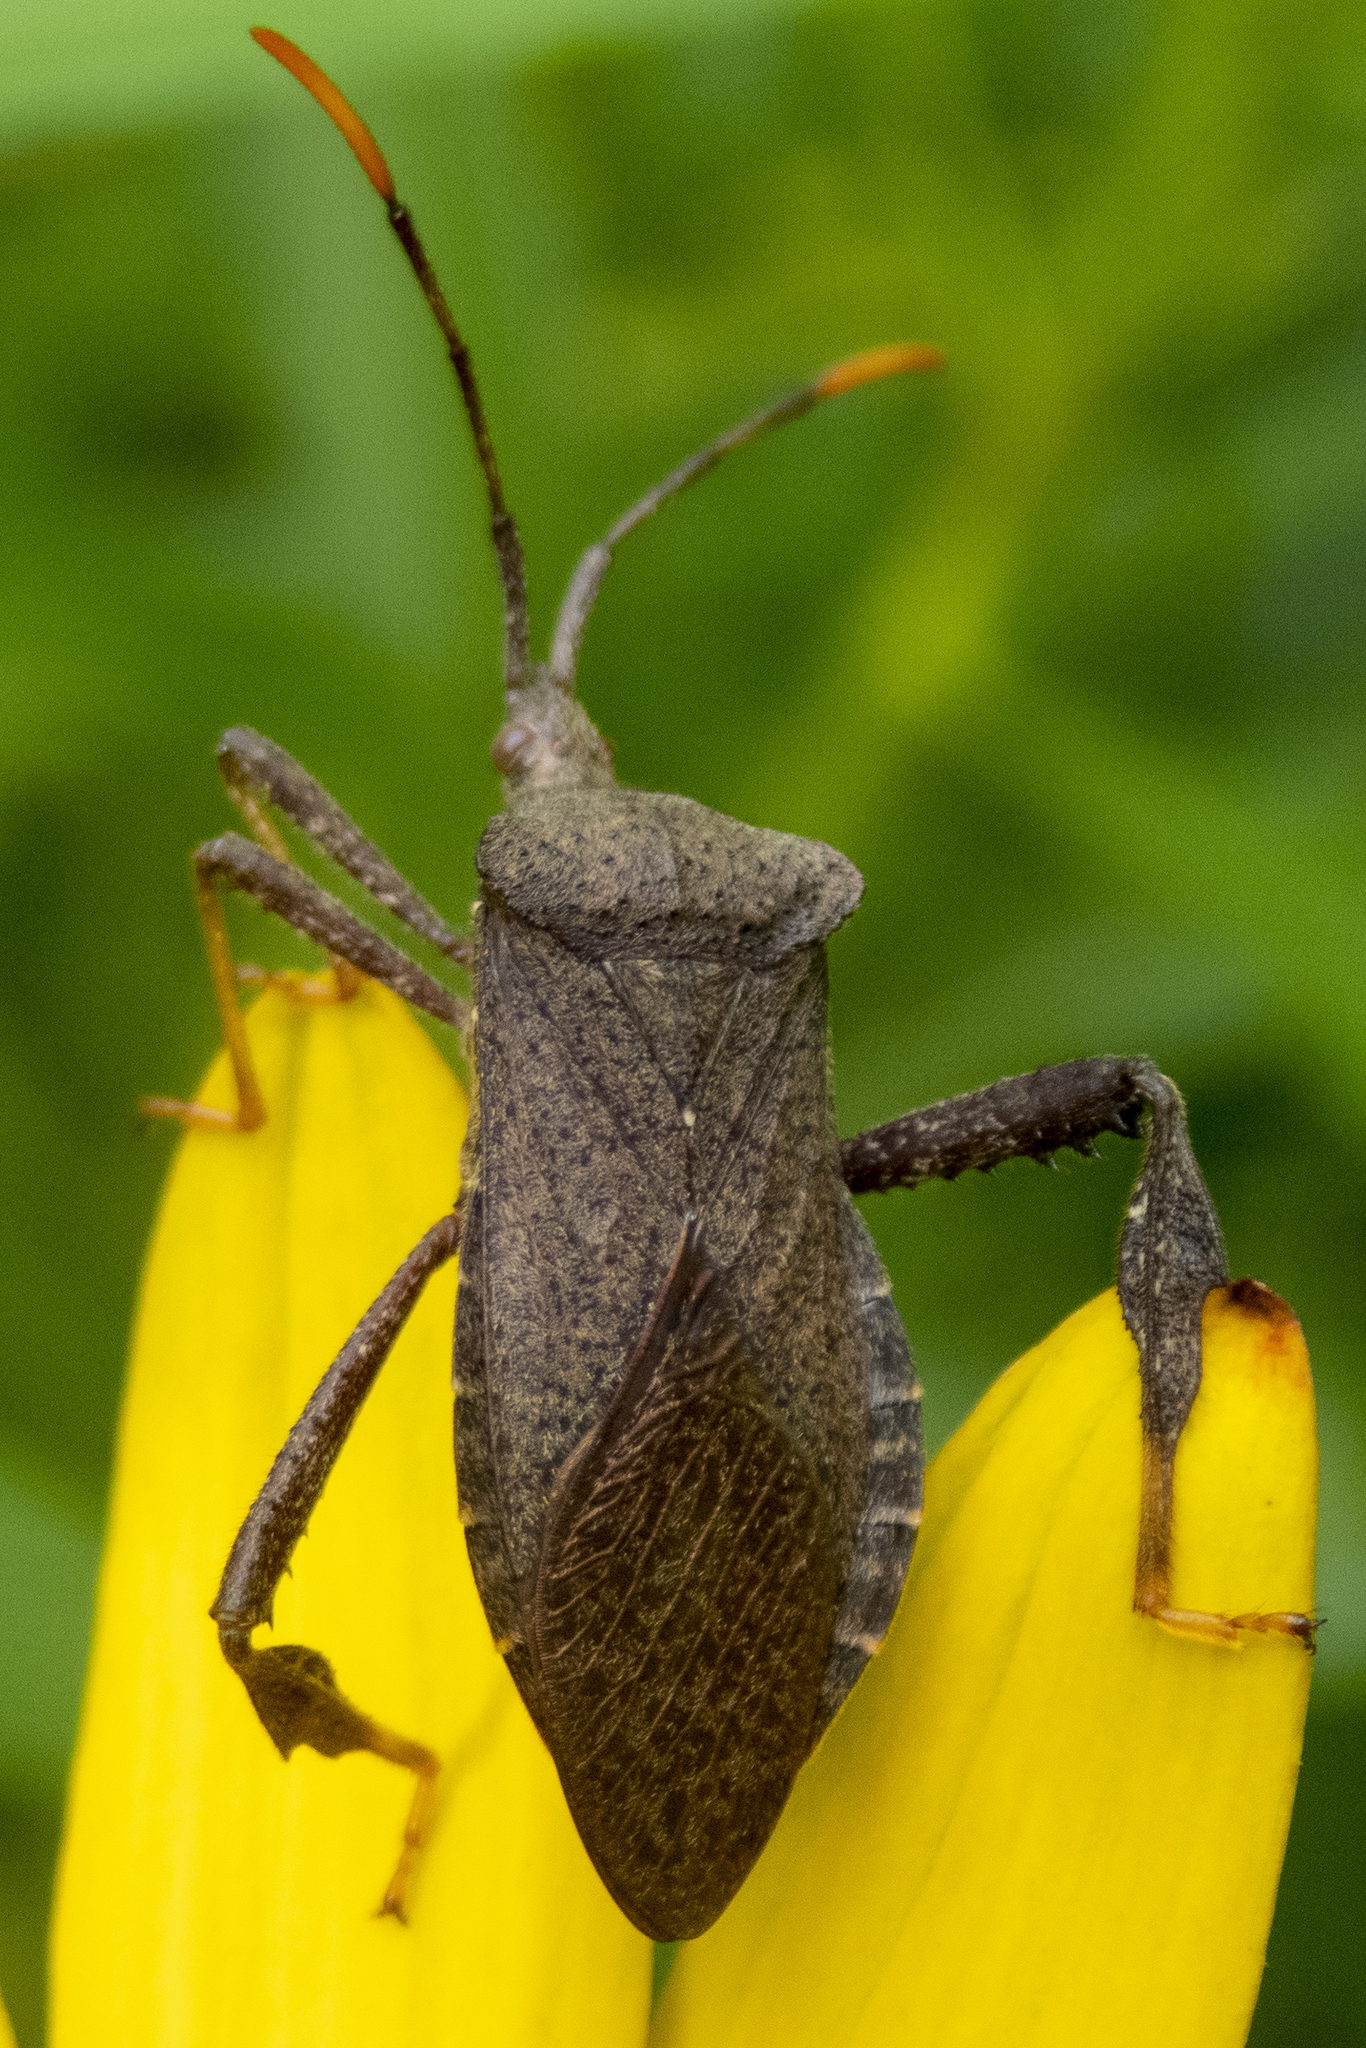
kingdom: Animalia
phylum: Arthropoda
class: Insecta
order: Hemiptera
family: Coreidae
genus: Acanthocephala
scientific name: Acanthocephala terminalis
